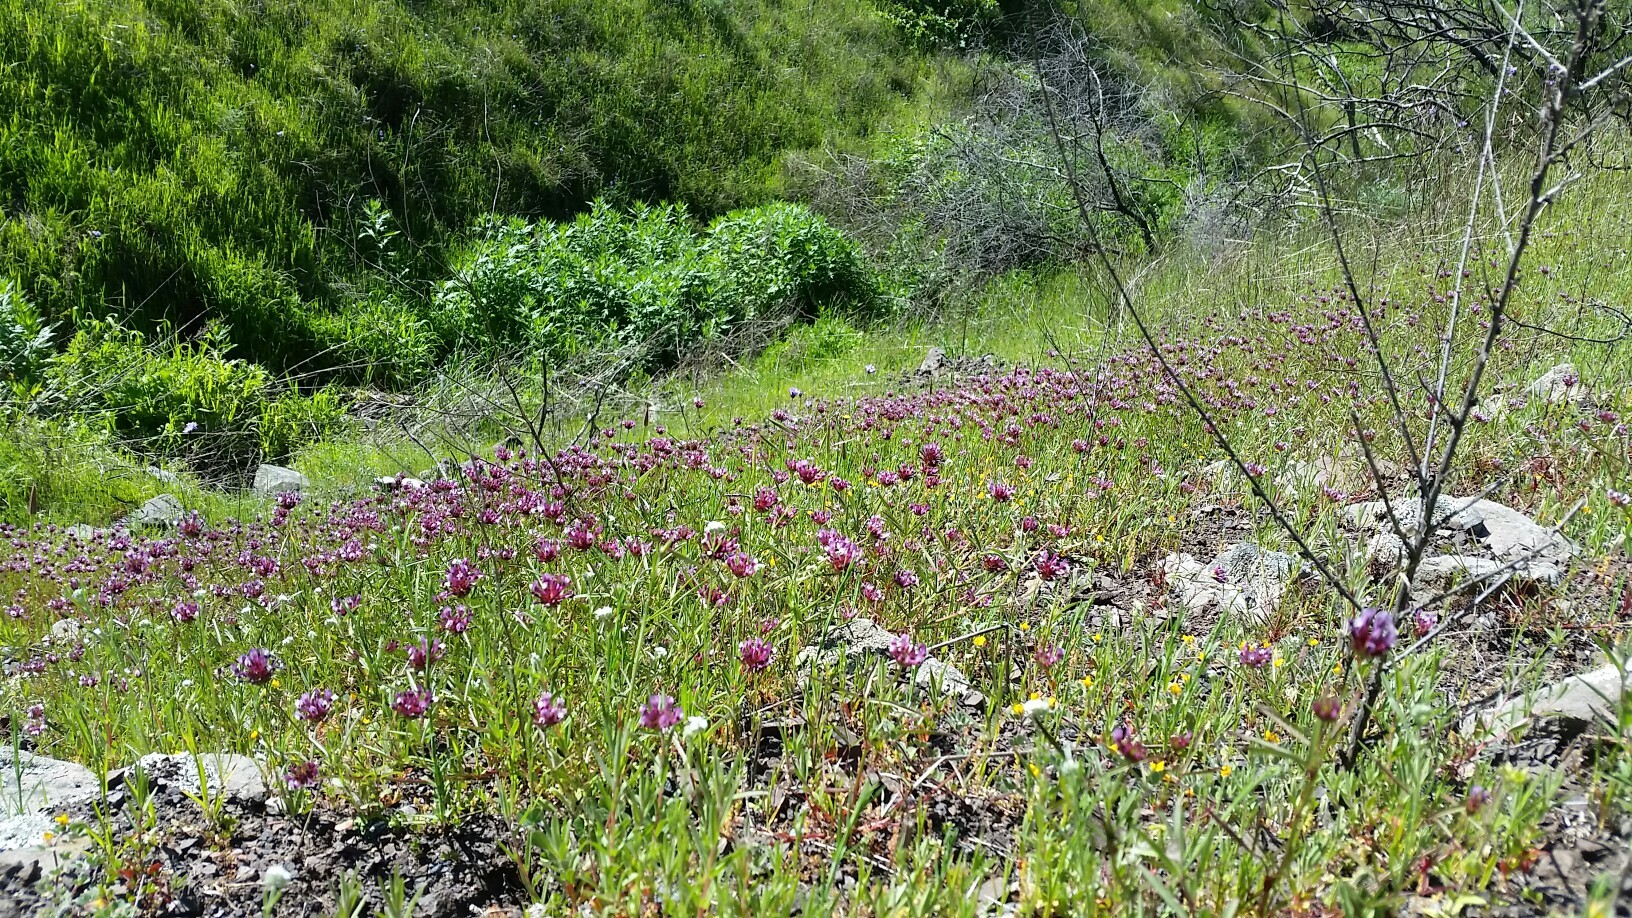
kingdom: Plantae
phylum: Tracheophyta
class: Magnoliopsida
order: Fabales
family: Fabaceae
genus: Trifolium
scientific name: Trifolium willdenovii
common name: Tomcat clover
